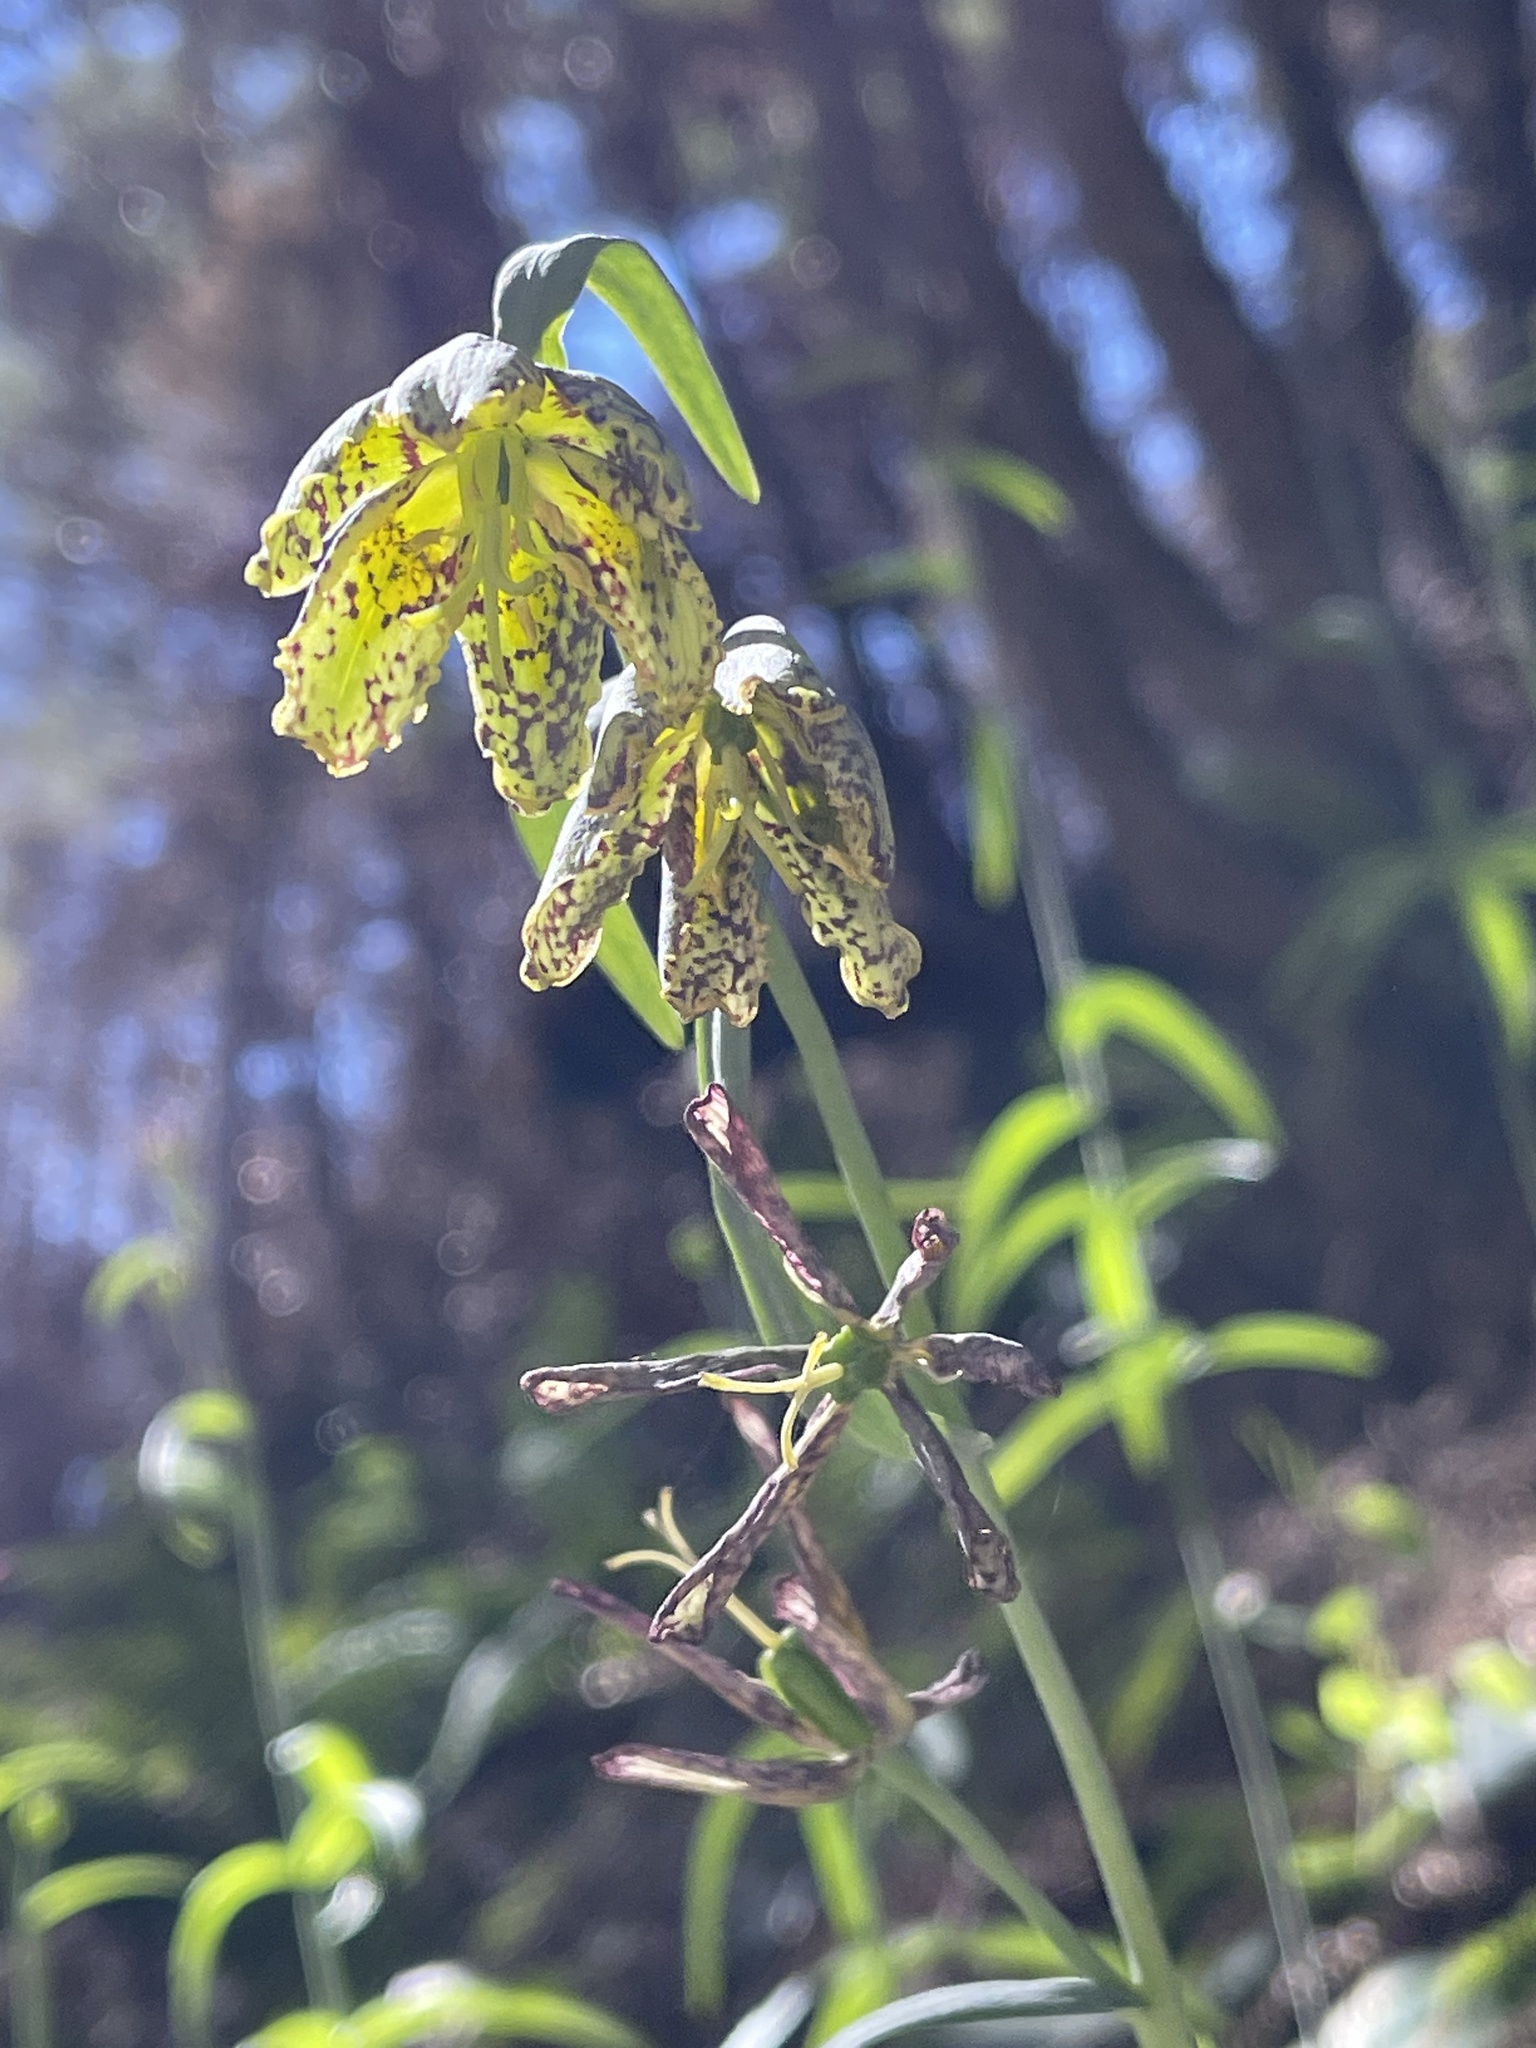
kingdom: Plantae
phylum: Tracheophyta
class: Liliopsida
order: Liliales
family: Liliaceae
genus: Fritillaria
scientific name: Fritillaria affinis
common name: Ojai fritillary
